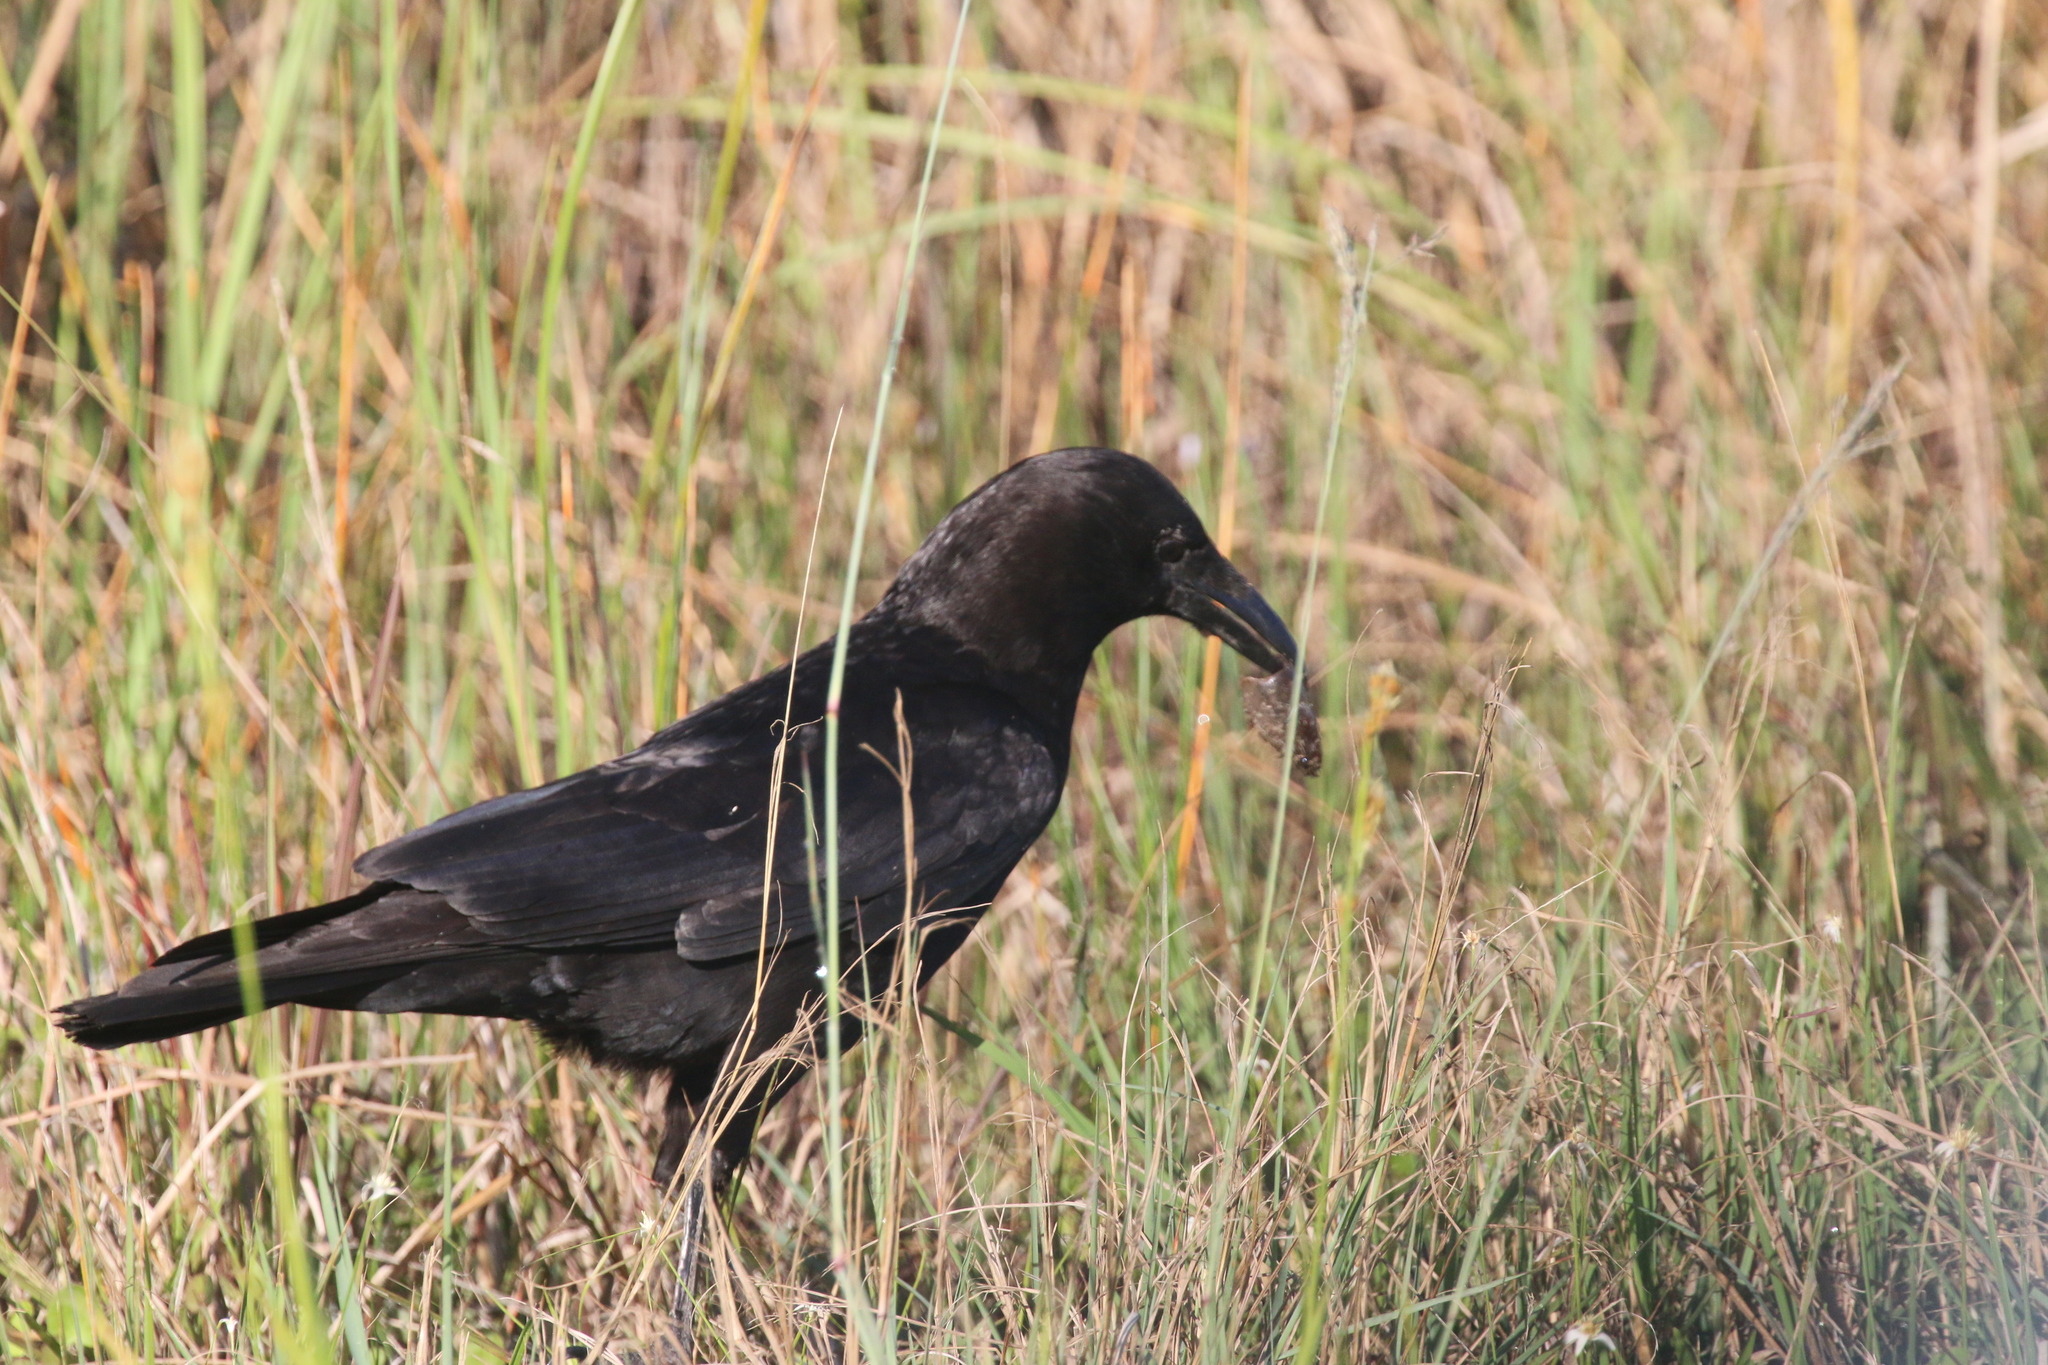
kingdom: Animalia
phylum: Chordata
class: Aves
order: Passeriformes
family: Corvidae
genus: Corvus
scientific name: Corvus brachyrhynchos
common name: American crow
